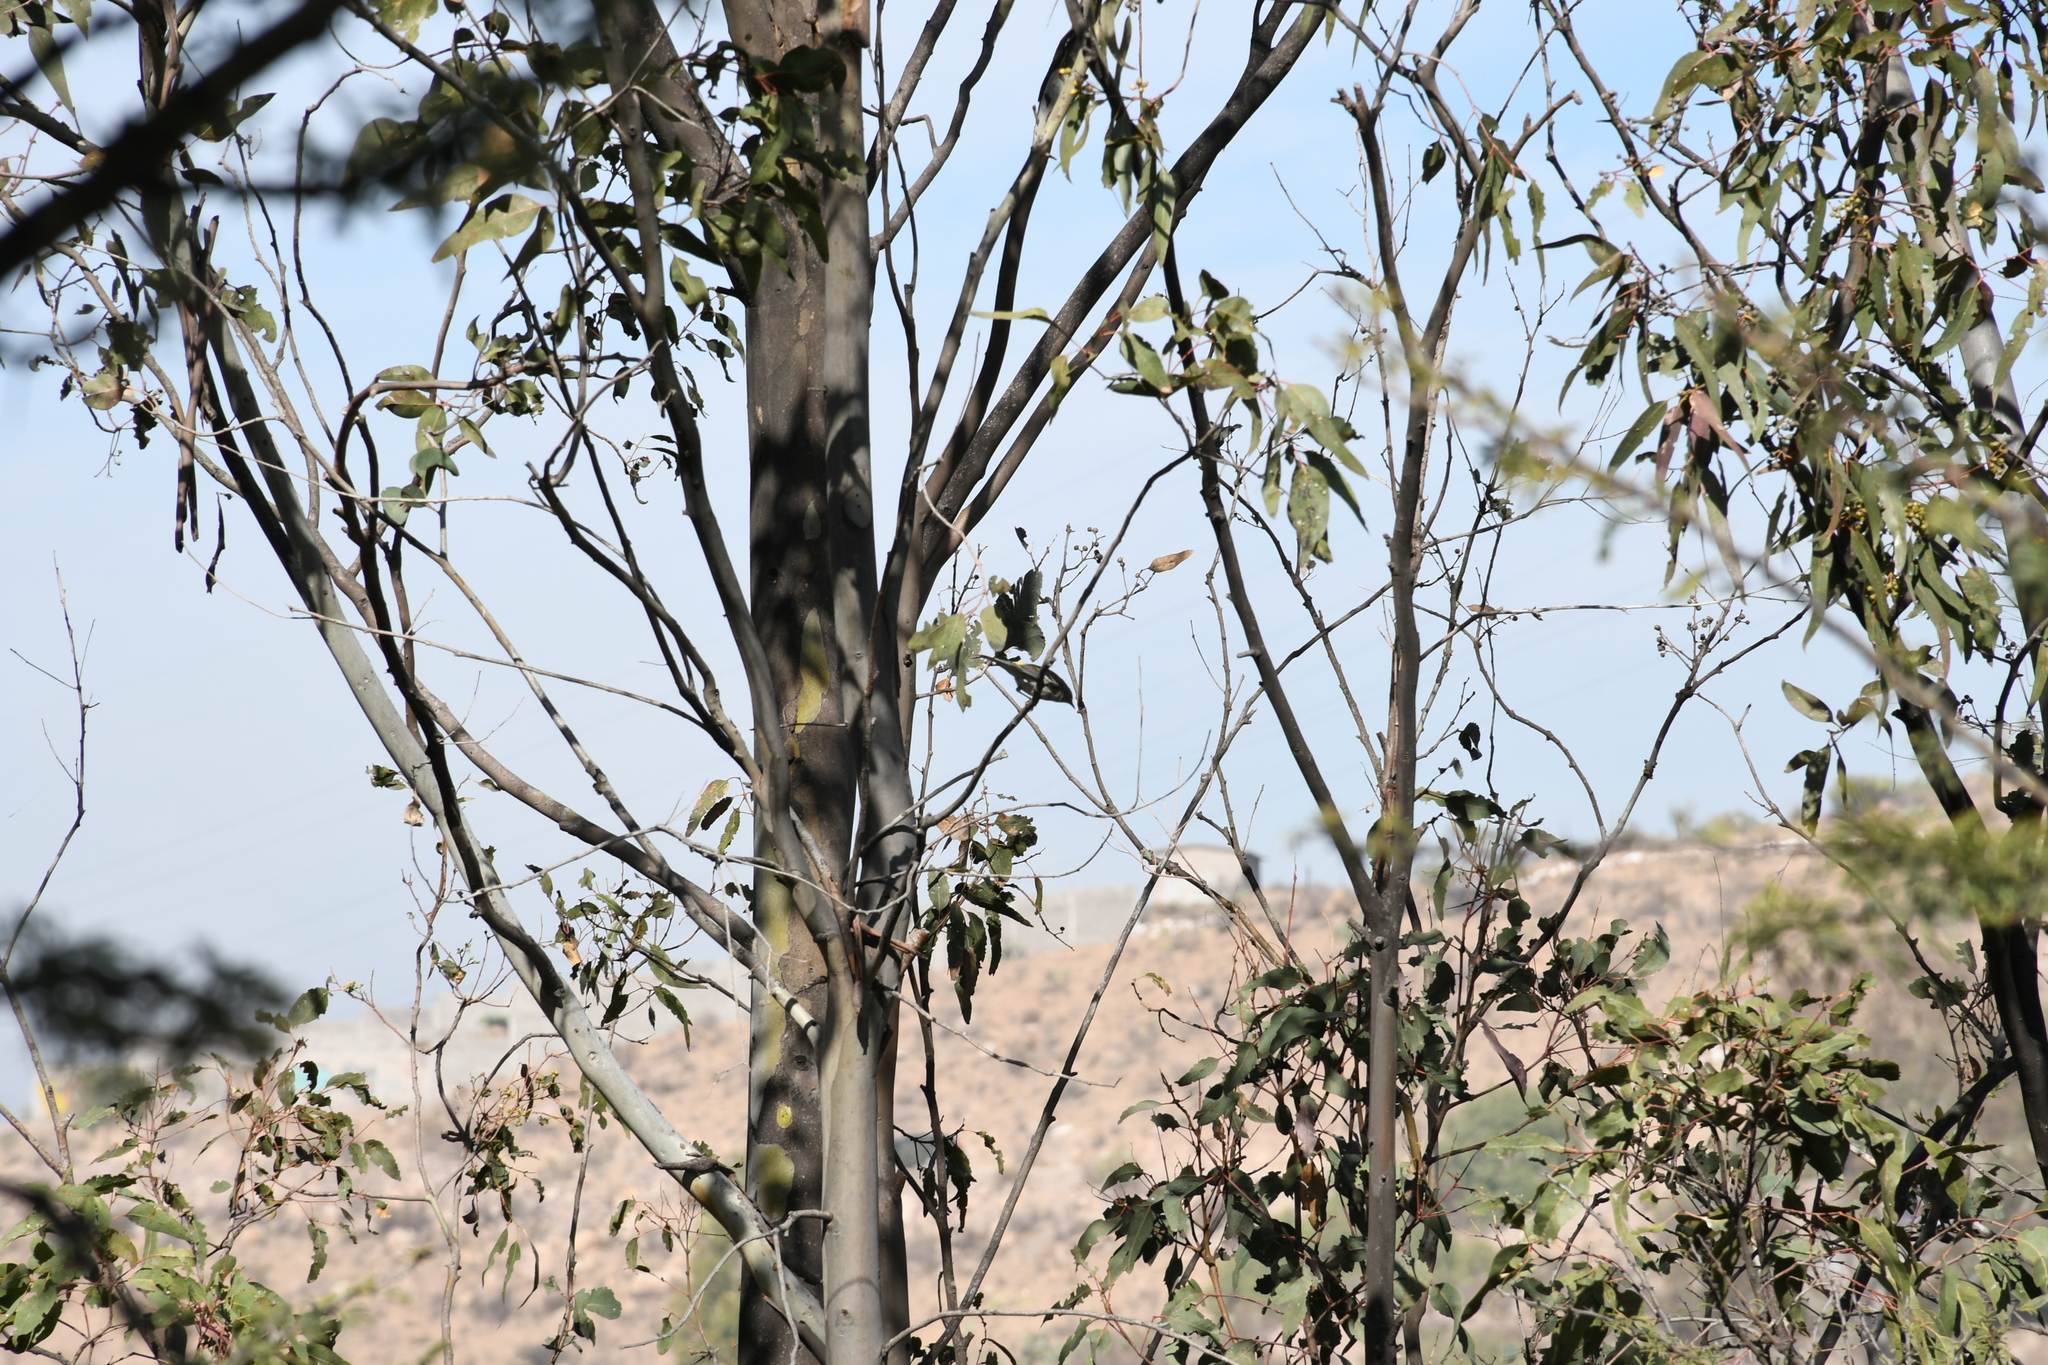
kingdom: Animalia
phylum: Chordata
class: Aves
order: Passeriformes
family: Parulidae
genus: Setophaga
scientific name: Setophaga coronata
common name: Myrtle warbler
